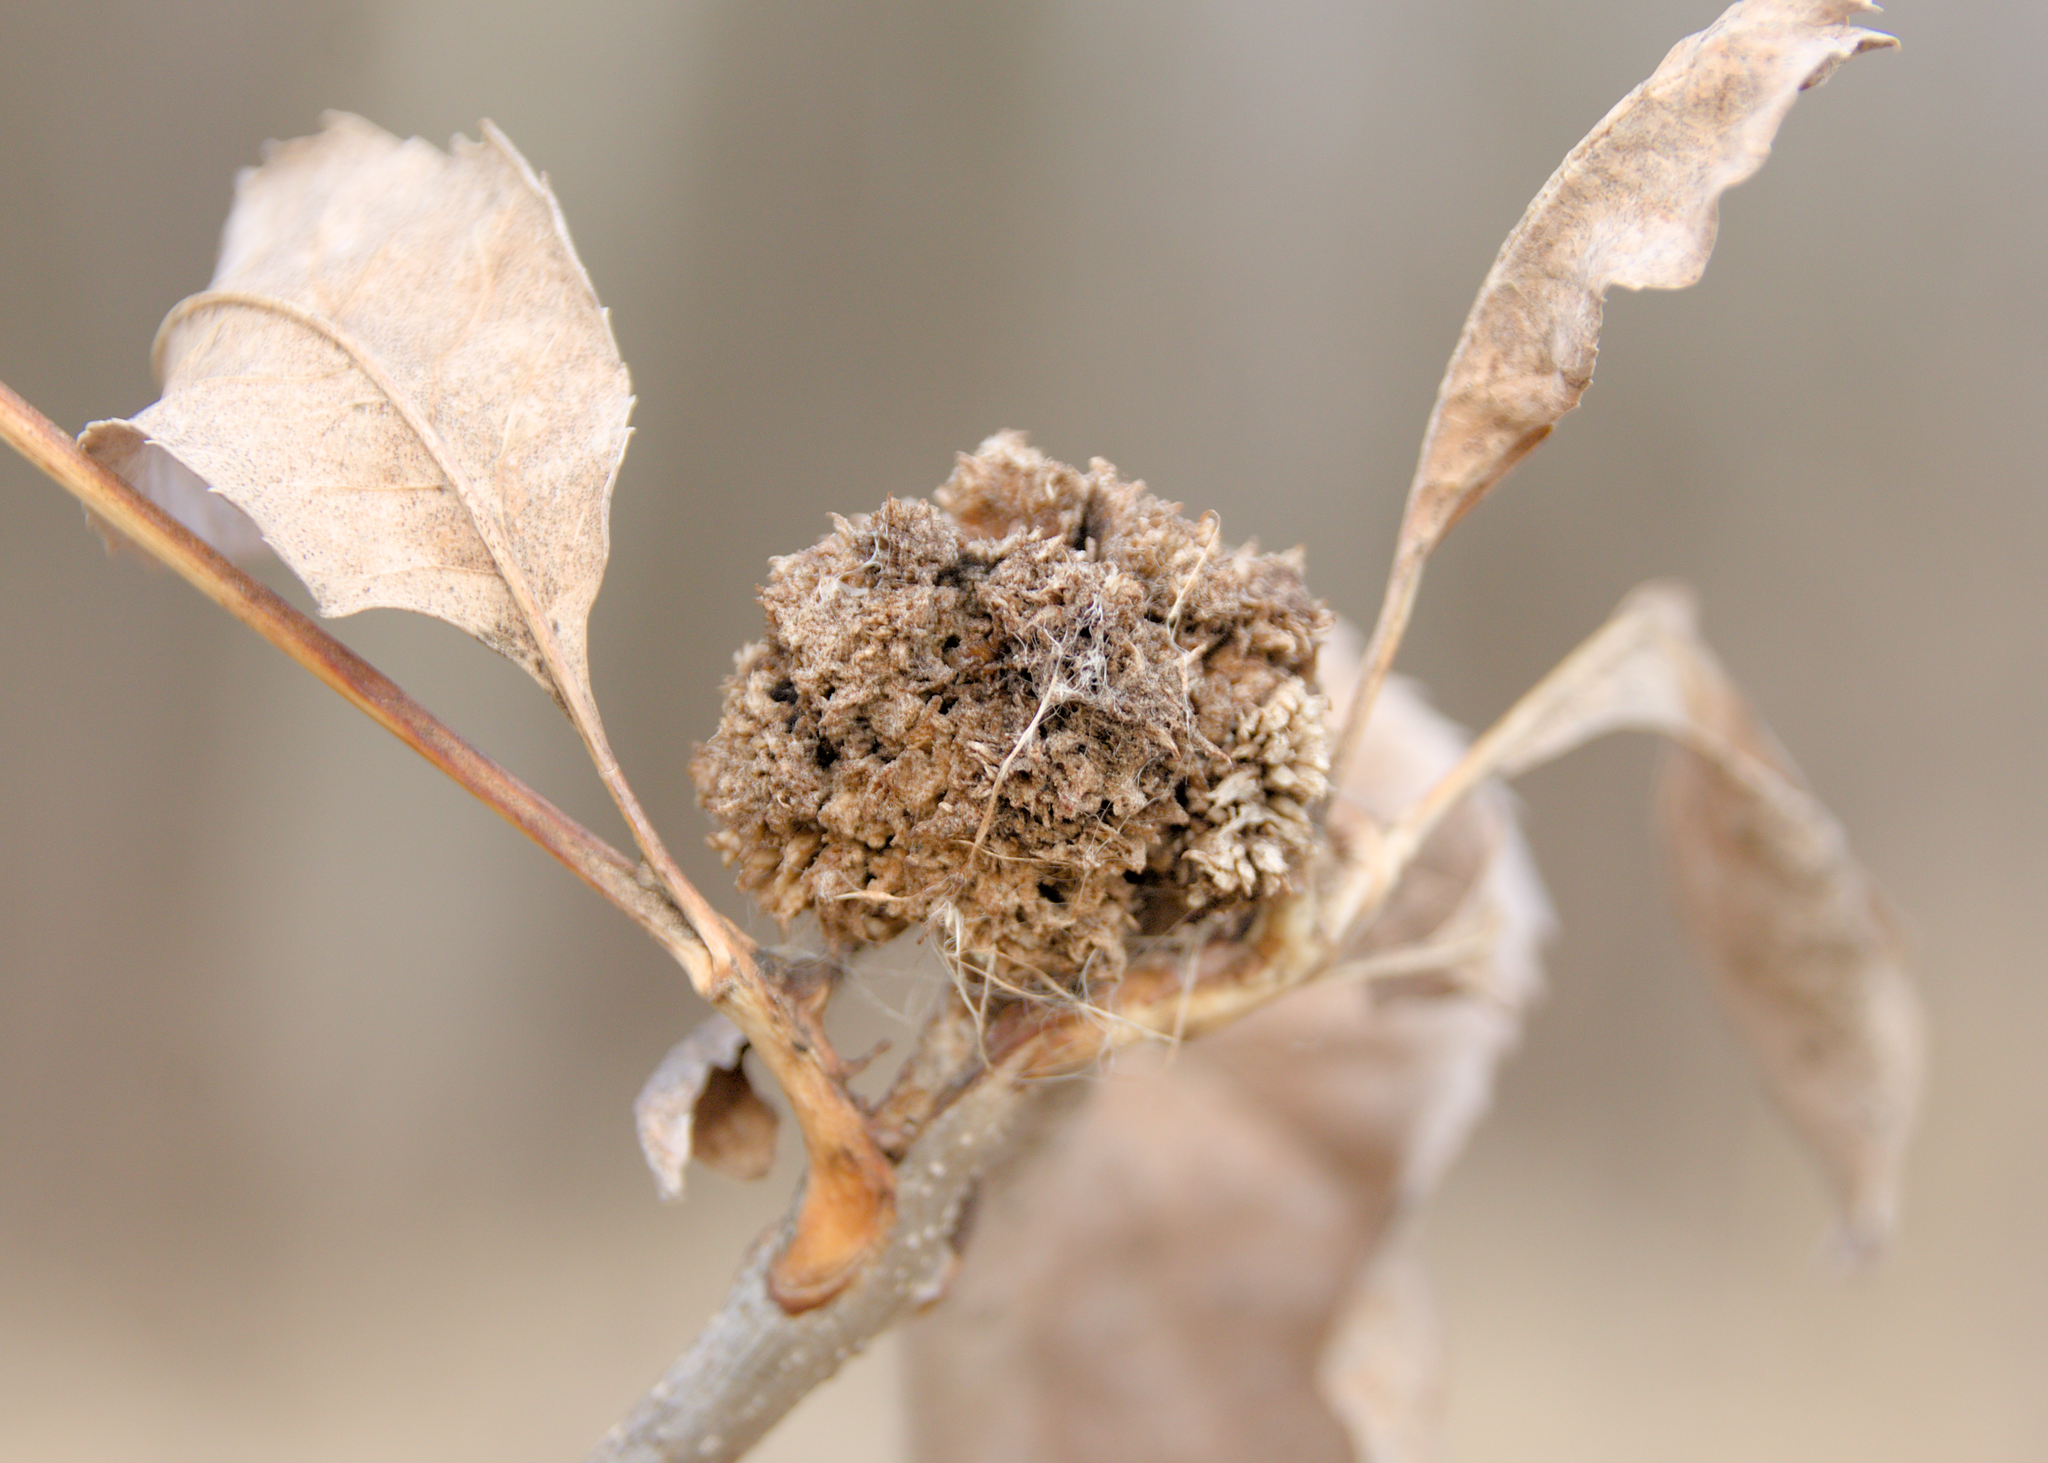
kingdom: Animalia
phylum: Arthropoda
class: Arachnida
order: Trombidiformes
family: Eriophyidae
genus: Aceria
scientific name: Aceria fraxiniflora
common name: Ash flower gall mite
